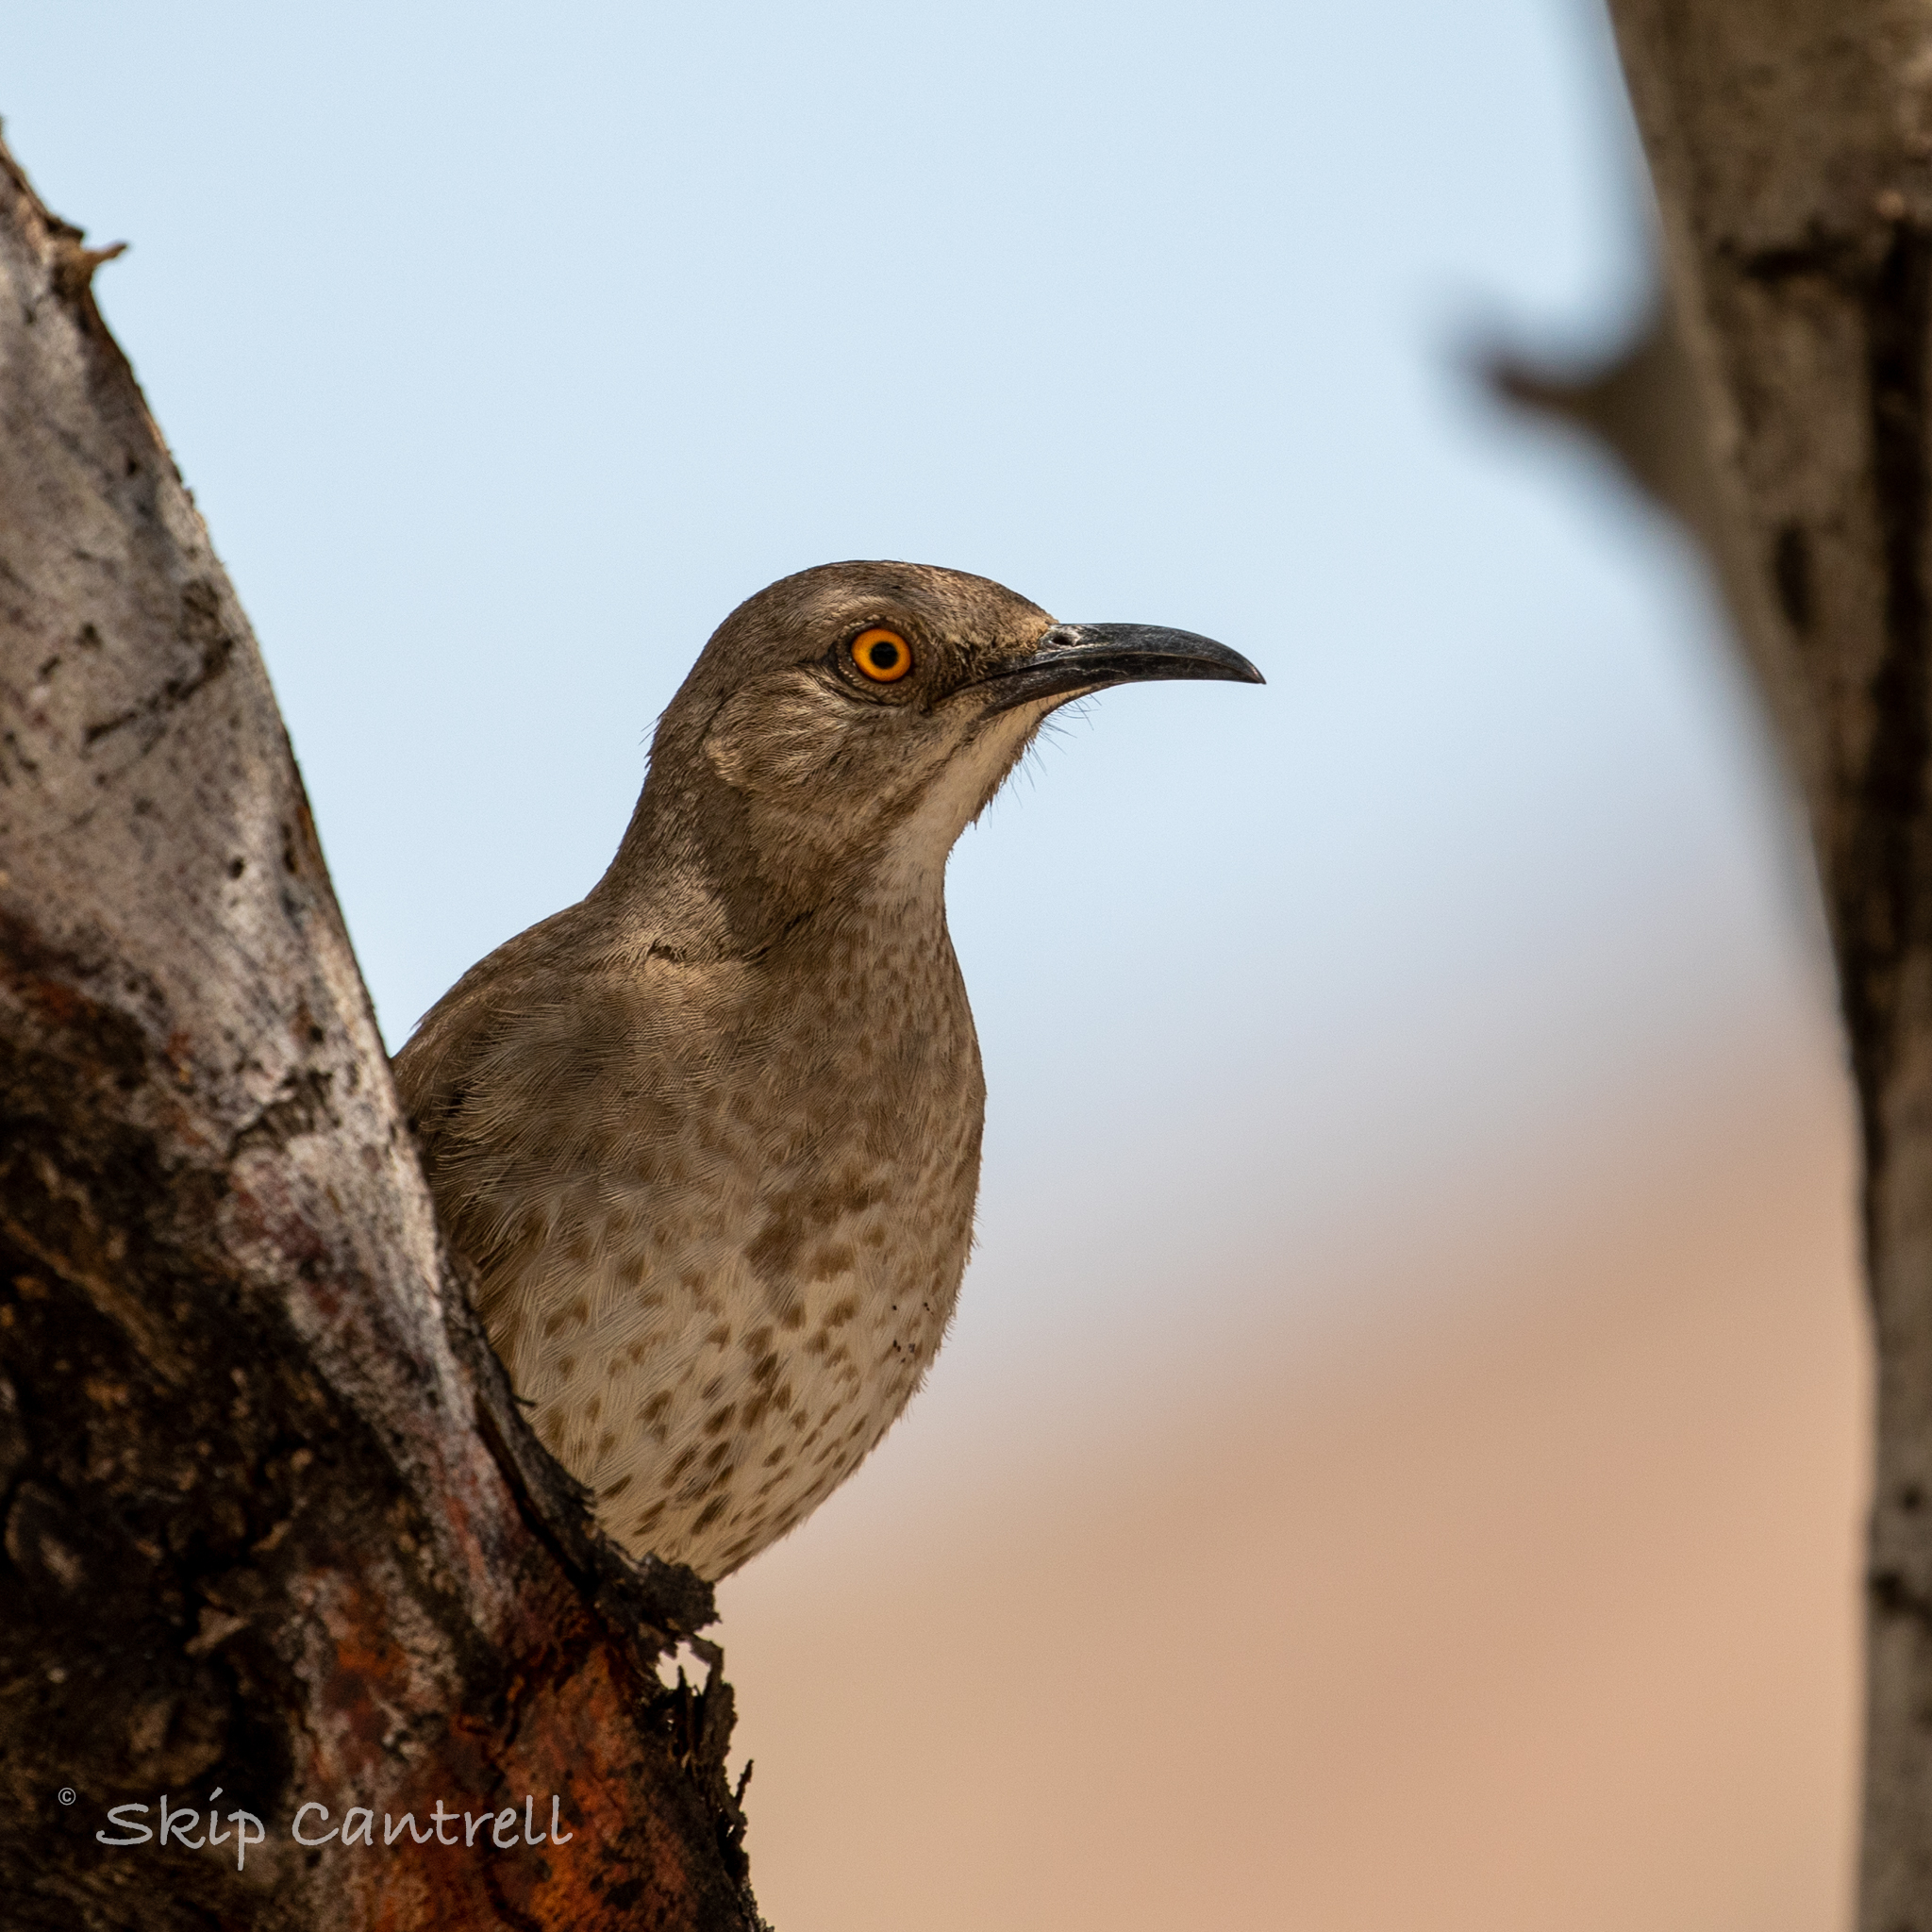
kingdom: Animalia
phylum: Chordata
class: Aves
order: Passeriformes
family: Mimidae
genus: Toxostoma
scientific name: Toxostoma curvirostre
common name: Curve-billed thrasher
